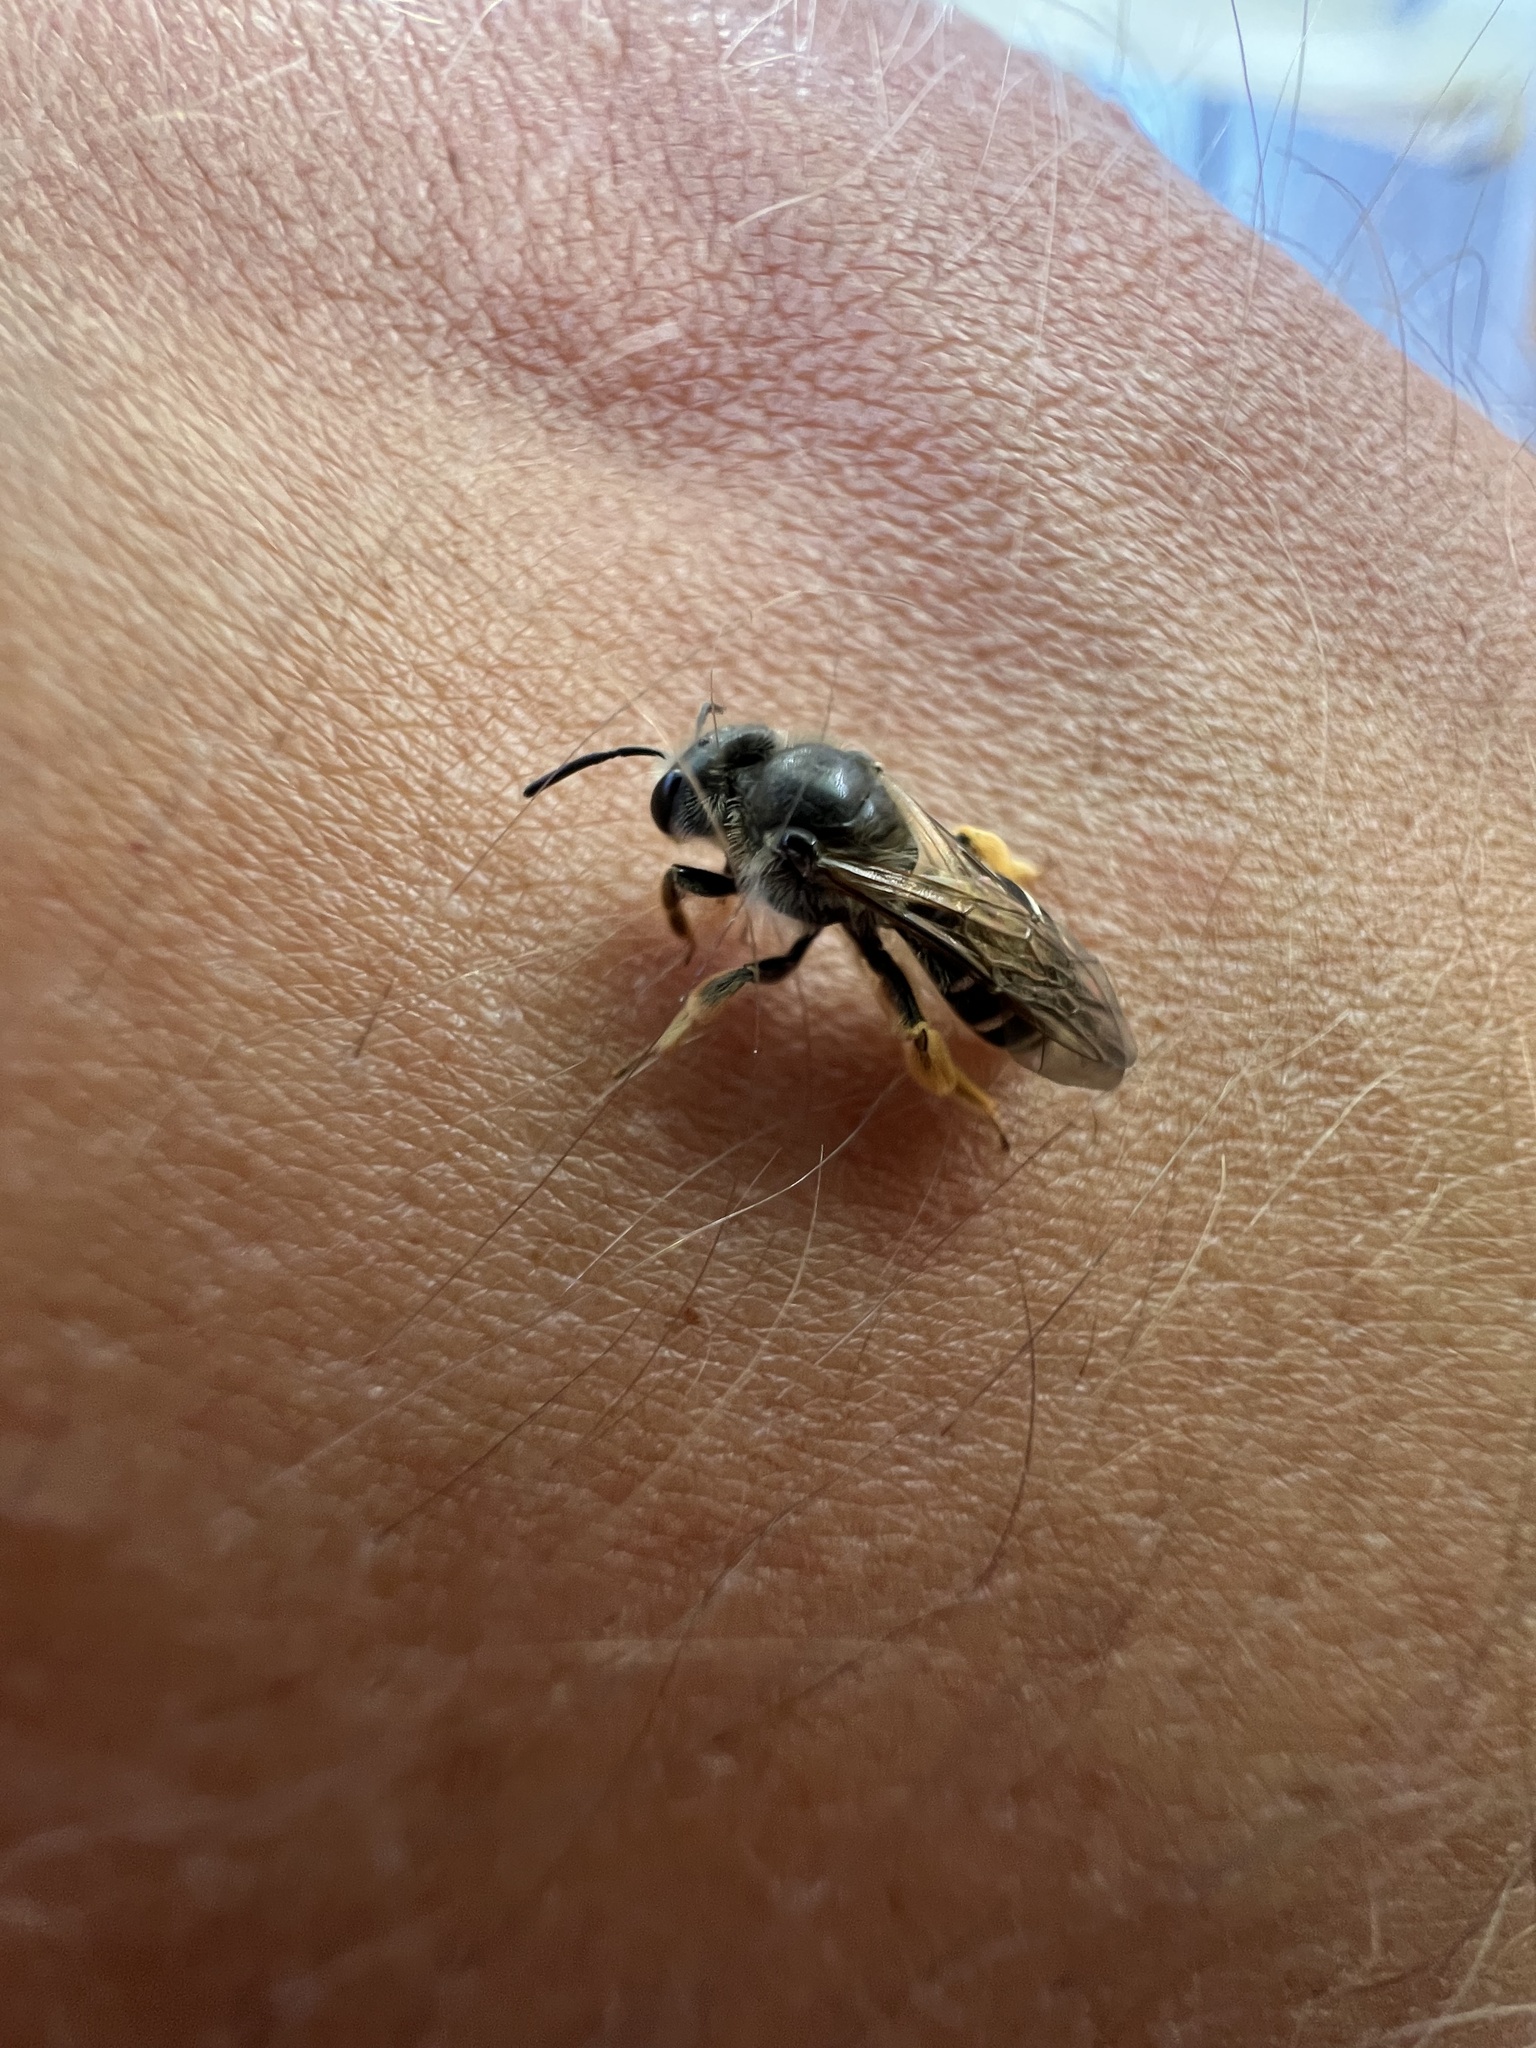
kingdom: Animalia
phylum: Arthropoda
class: Insecta
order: Hymenoptera
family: Halictidae
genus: Halictus
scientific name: Halictus rubicundus
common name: Orange-legged furrow bee
